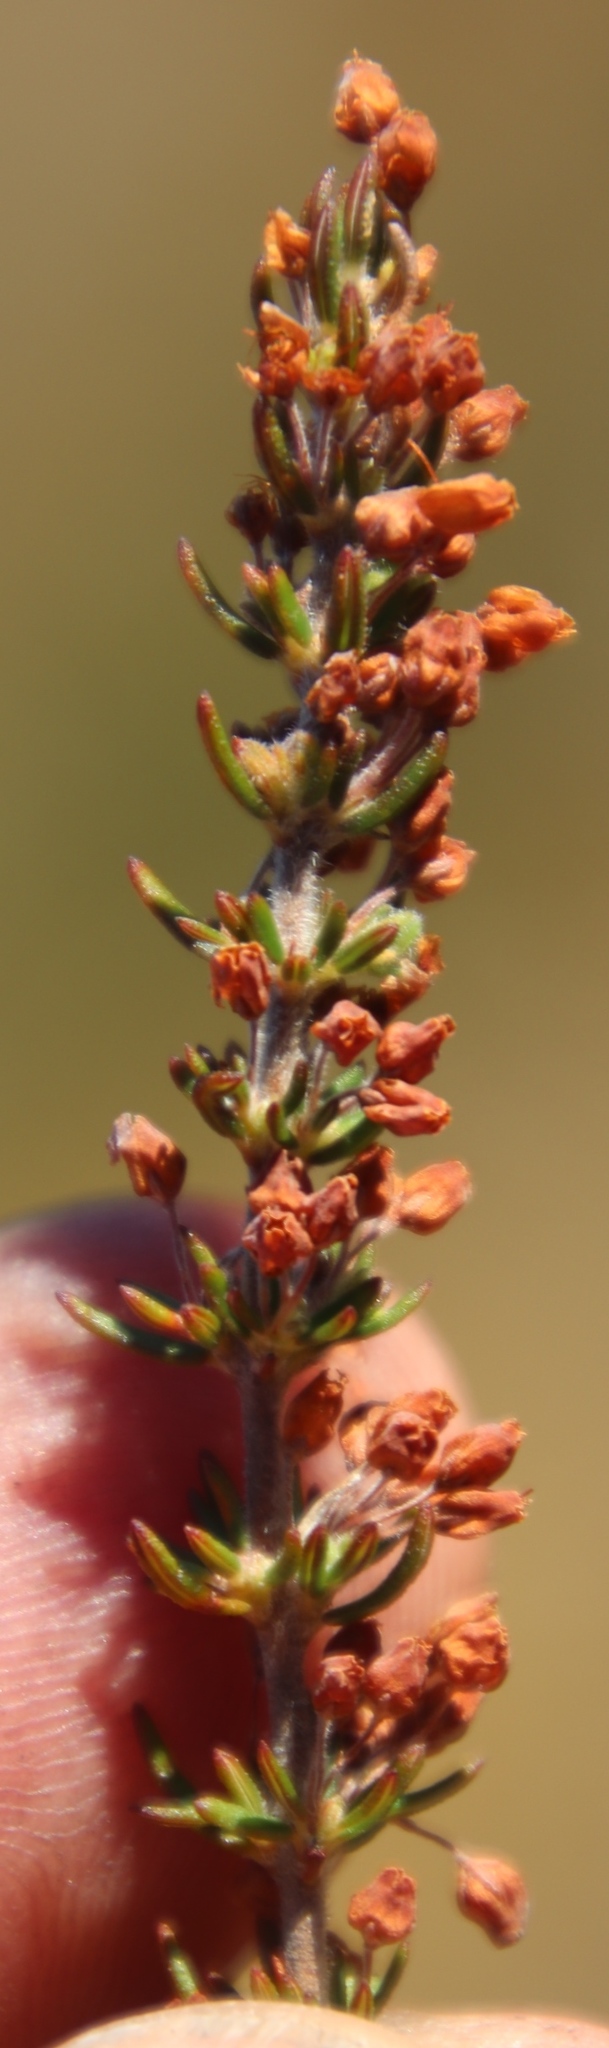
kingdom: Plantae
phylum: Tracheophyta
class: Magnoliopsida
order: Ericales
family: Ericaceae
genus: Erica
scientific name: Erica nudiflora
